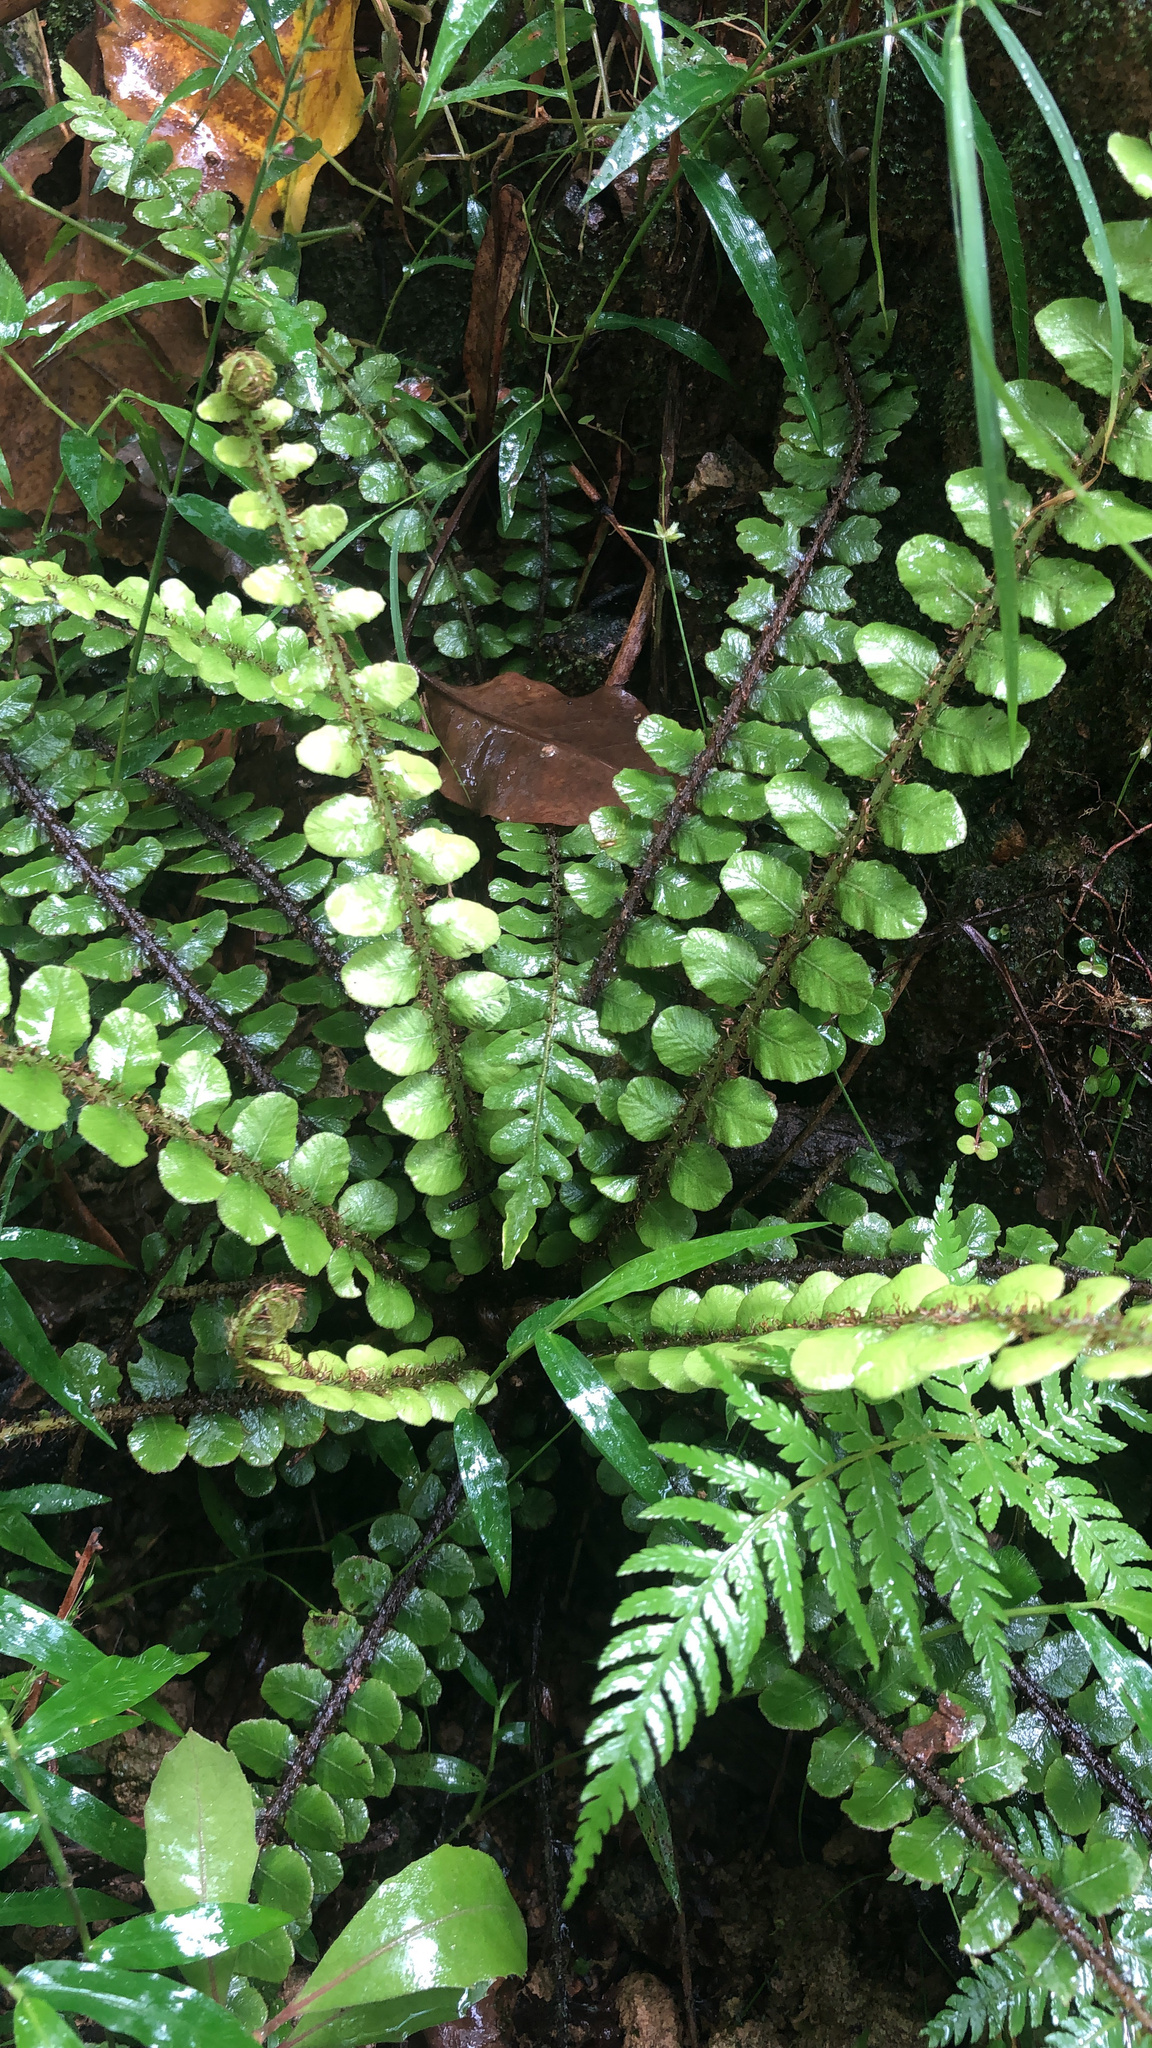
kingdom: Plantae
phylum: Tracheophyta
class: Polypodiopsida
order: Polypodiales
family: Blechnaceae
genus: Cranfillia
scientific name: Cranfillia fluviatilis
